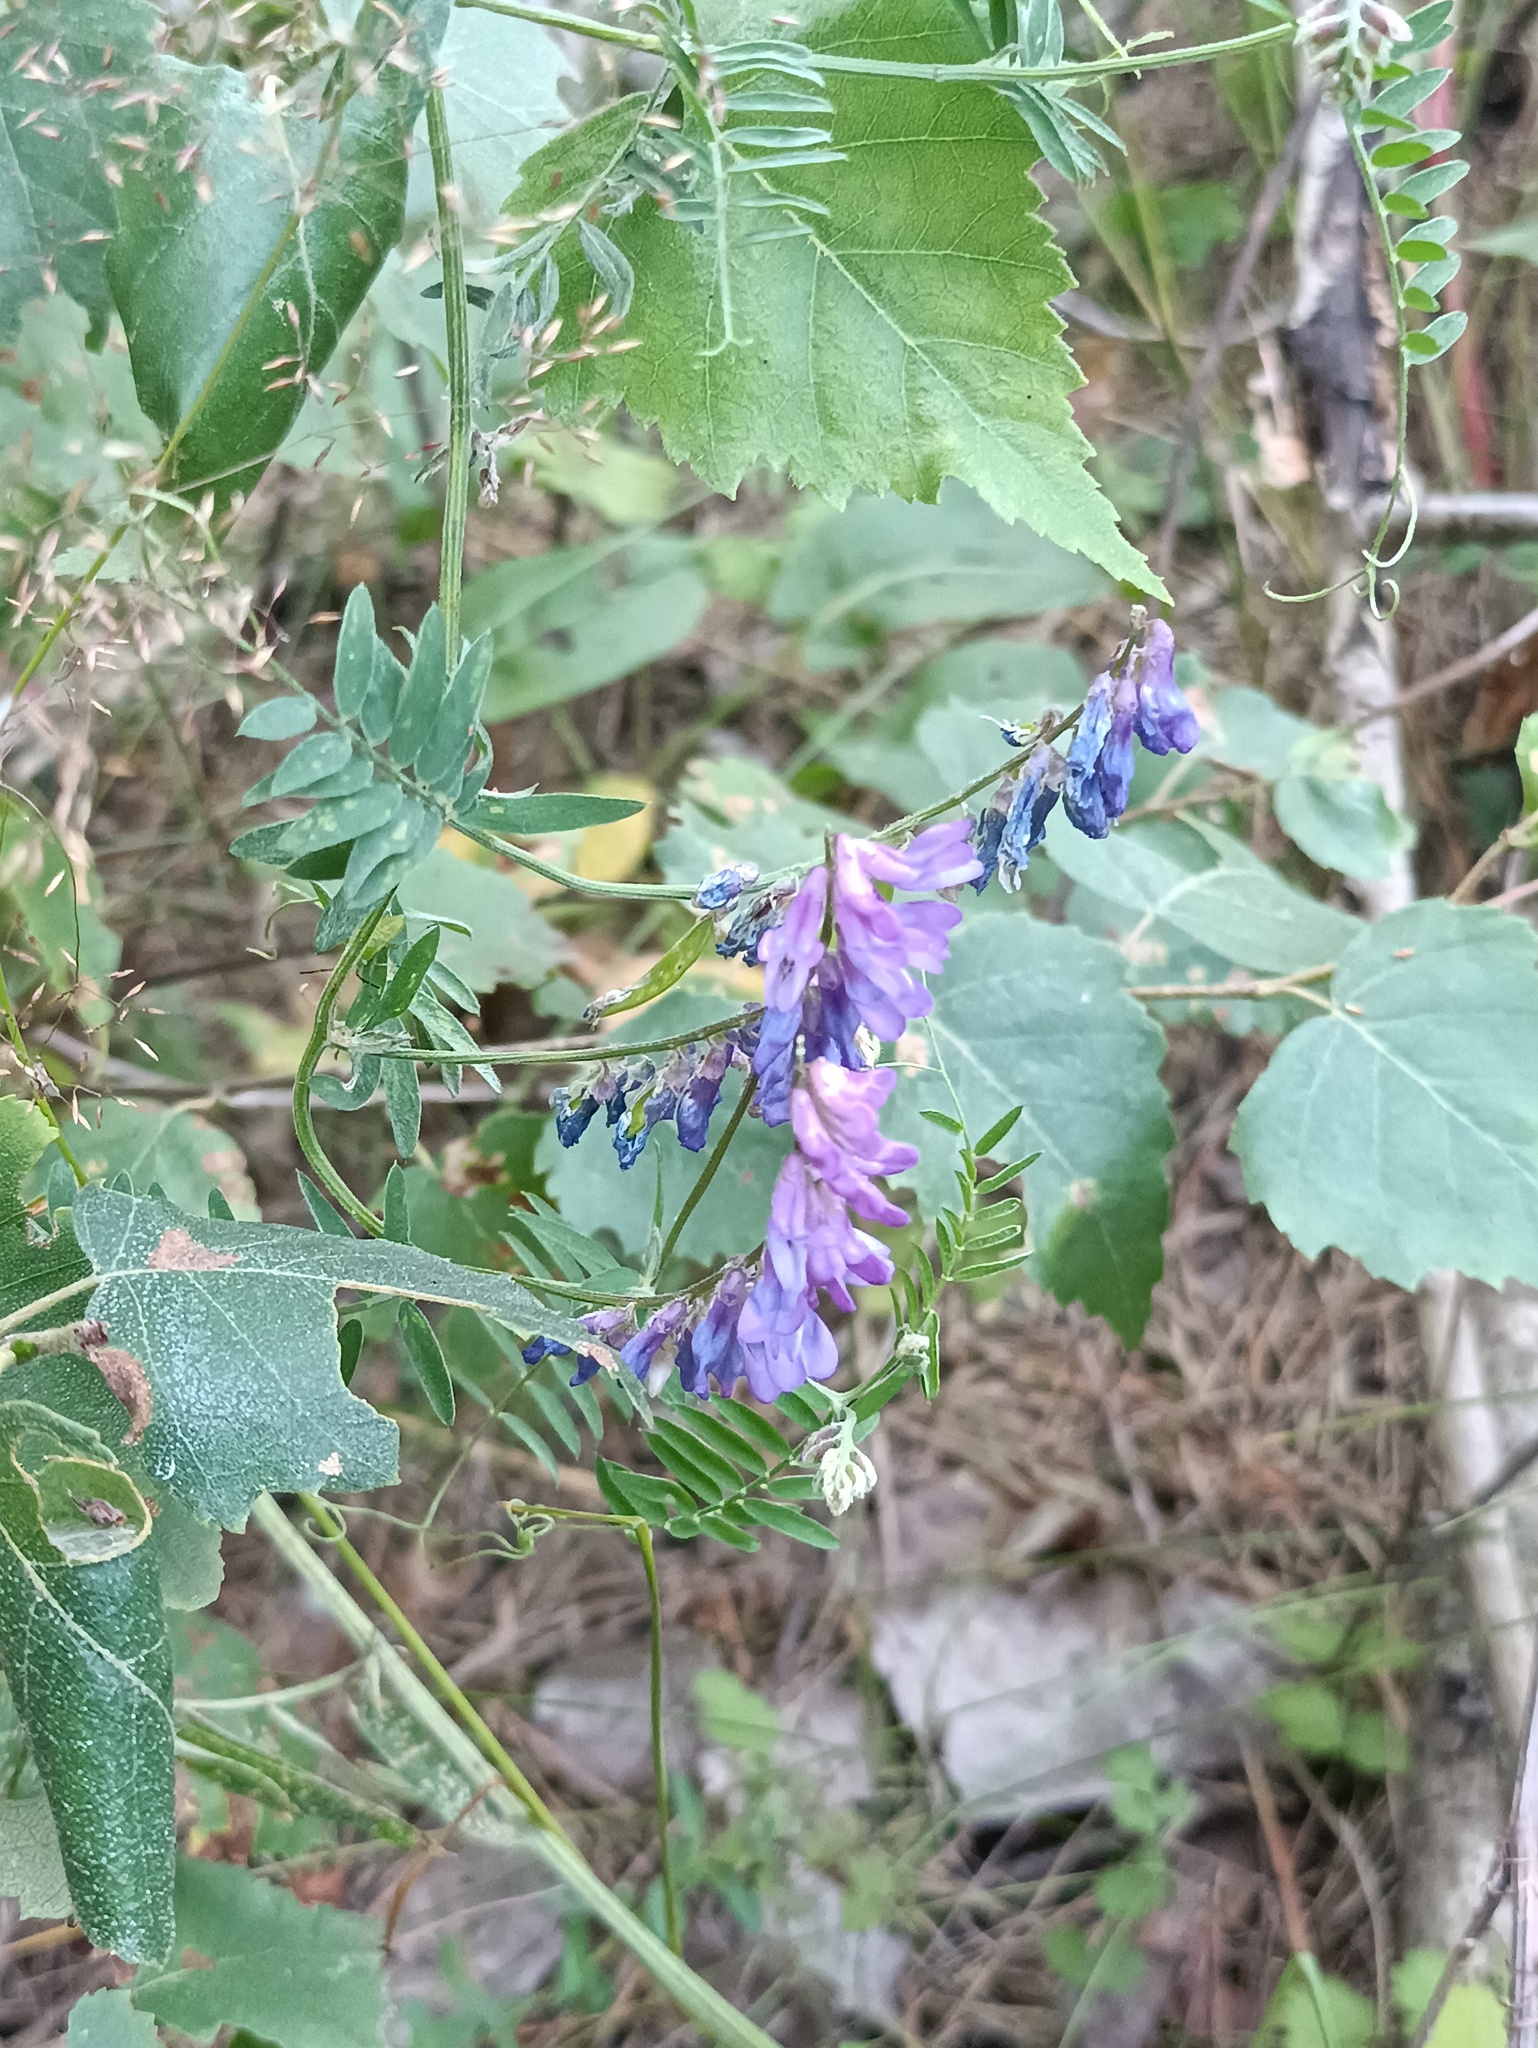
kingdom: Plantae
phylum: Tracheophyta
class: Magnoliopsida
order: Fabales
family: Fabaceae
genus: Vicia
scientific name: Vicia cracca
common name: Bird vetch
